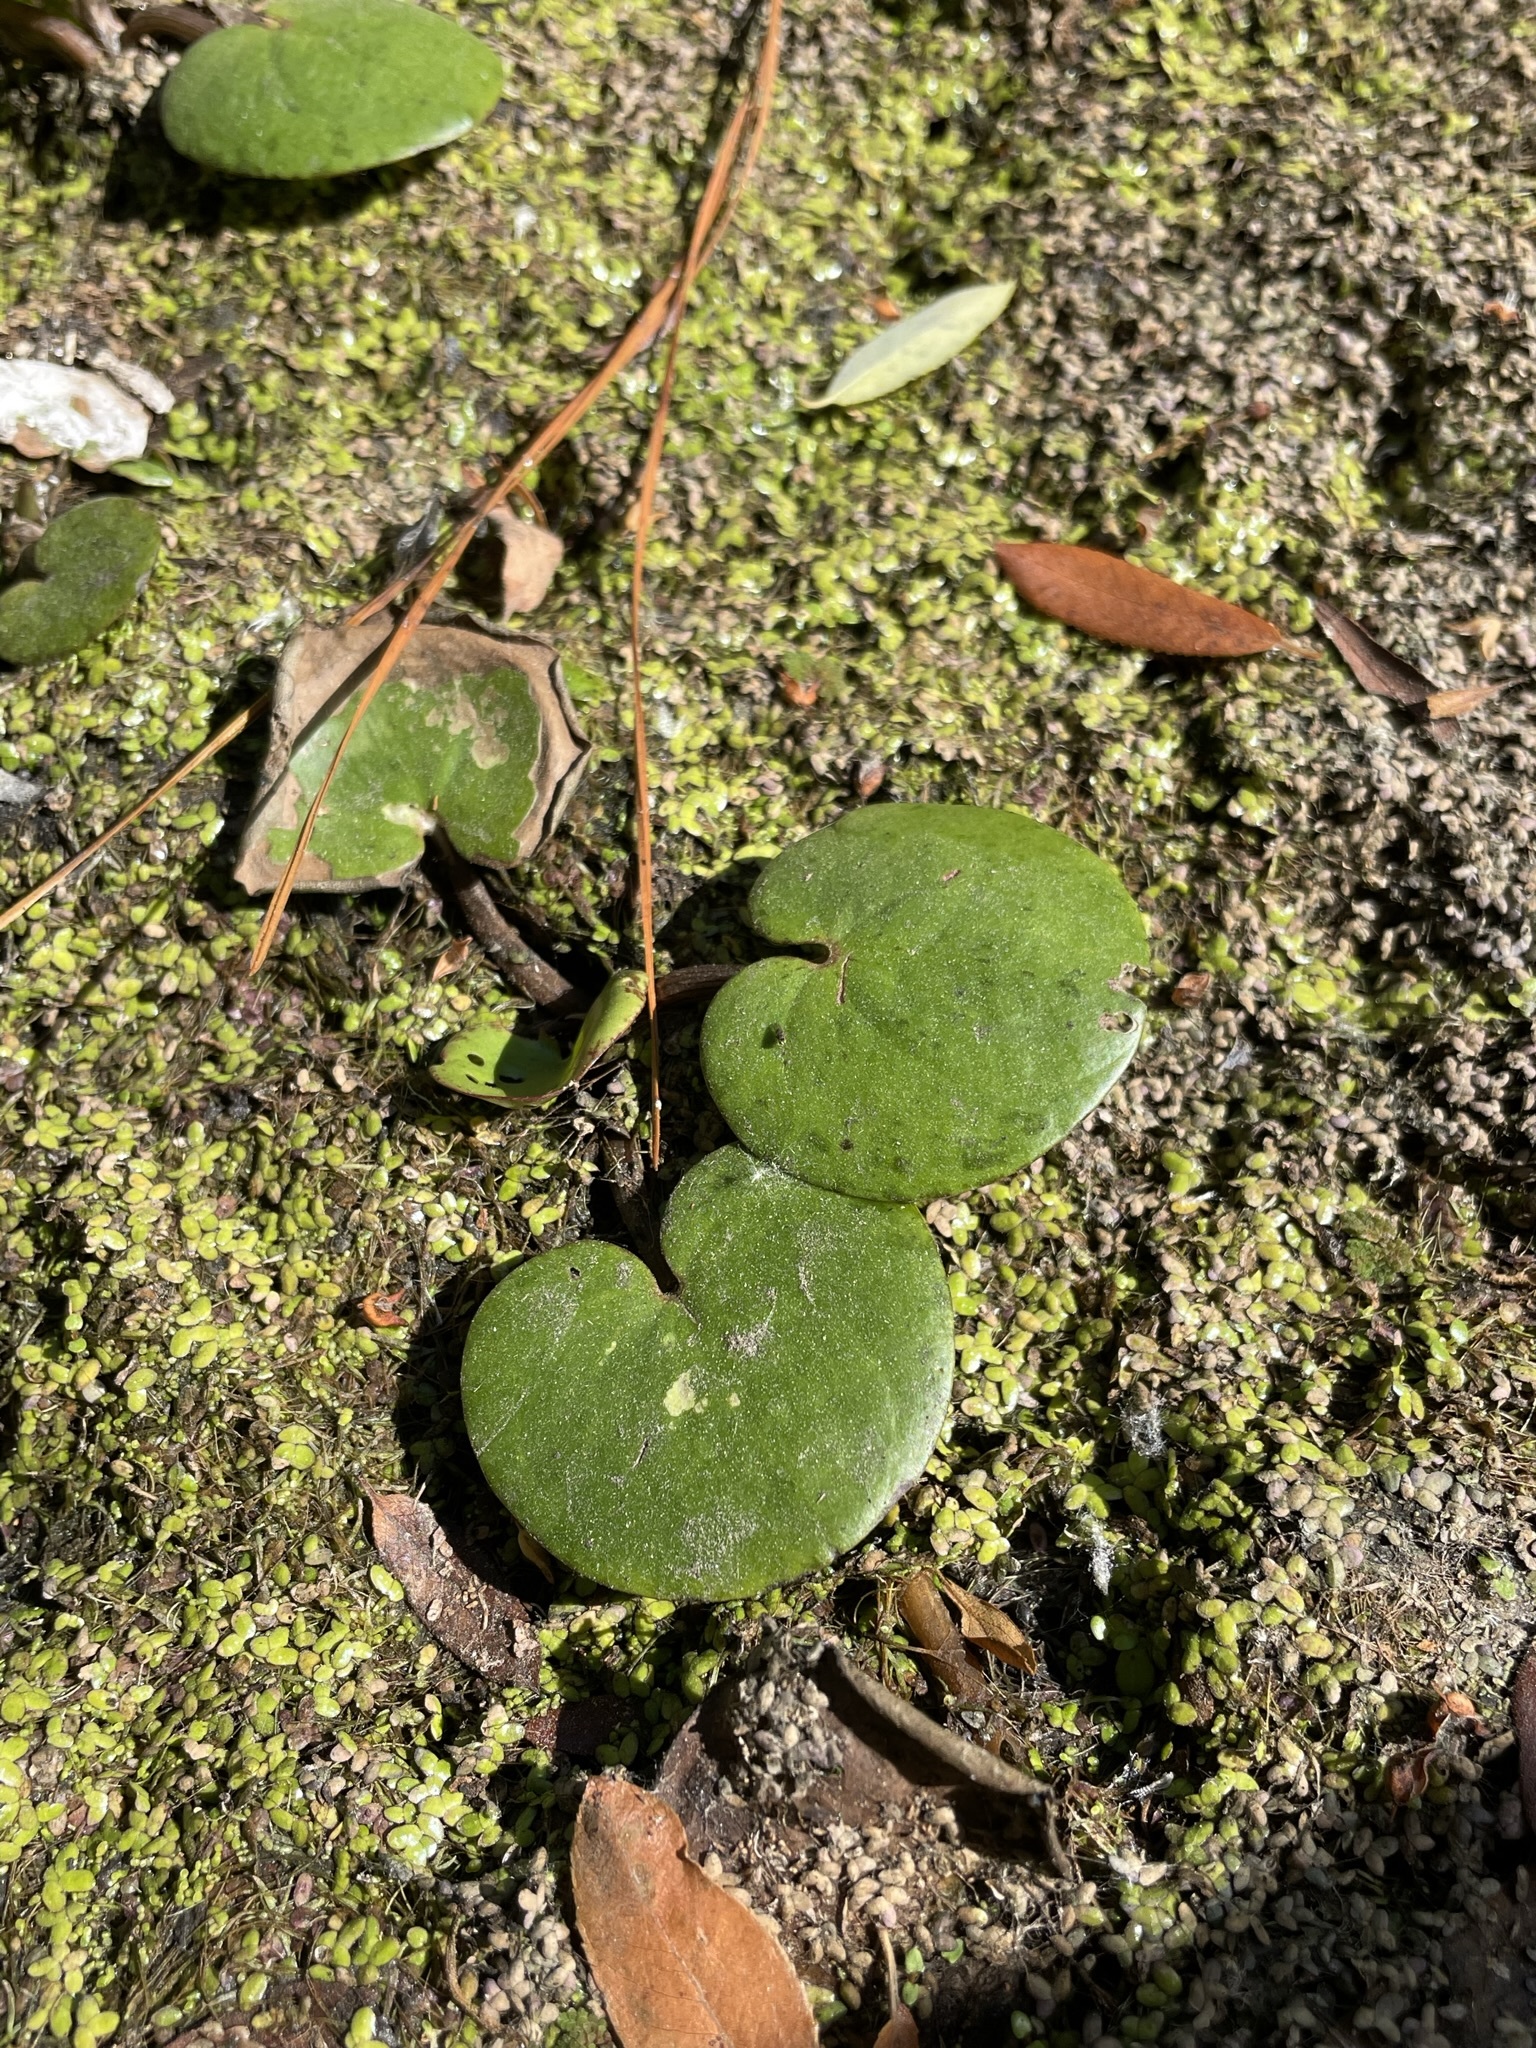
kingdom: Plantae
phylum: Tracheophyta
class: Liliopsida
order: Alismatales
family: Hydrocharitaceae
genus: Hydrocharis
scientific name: Hydrocharis spongia
